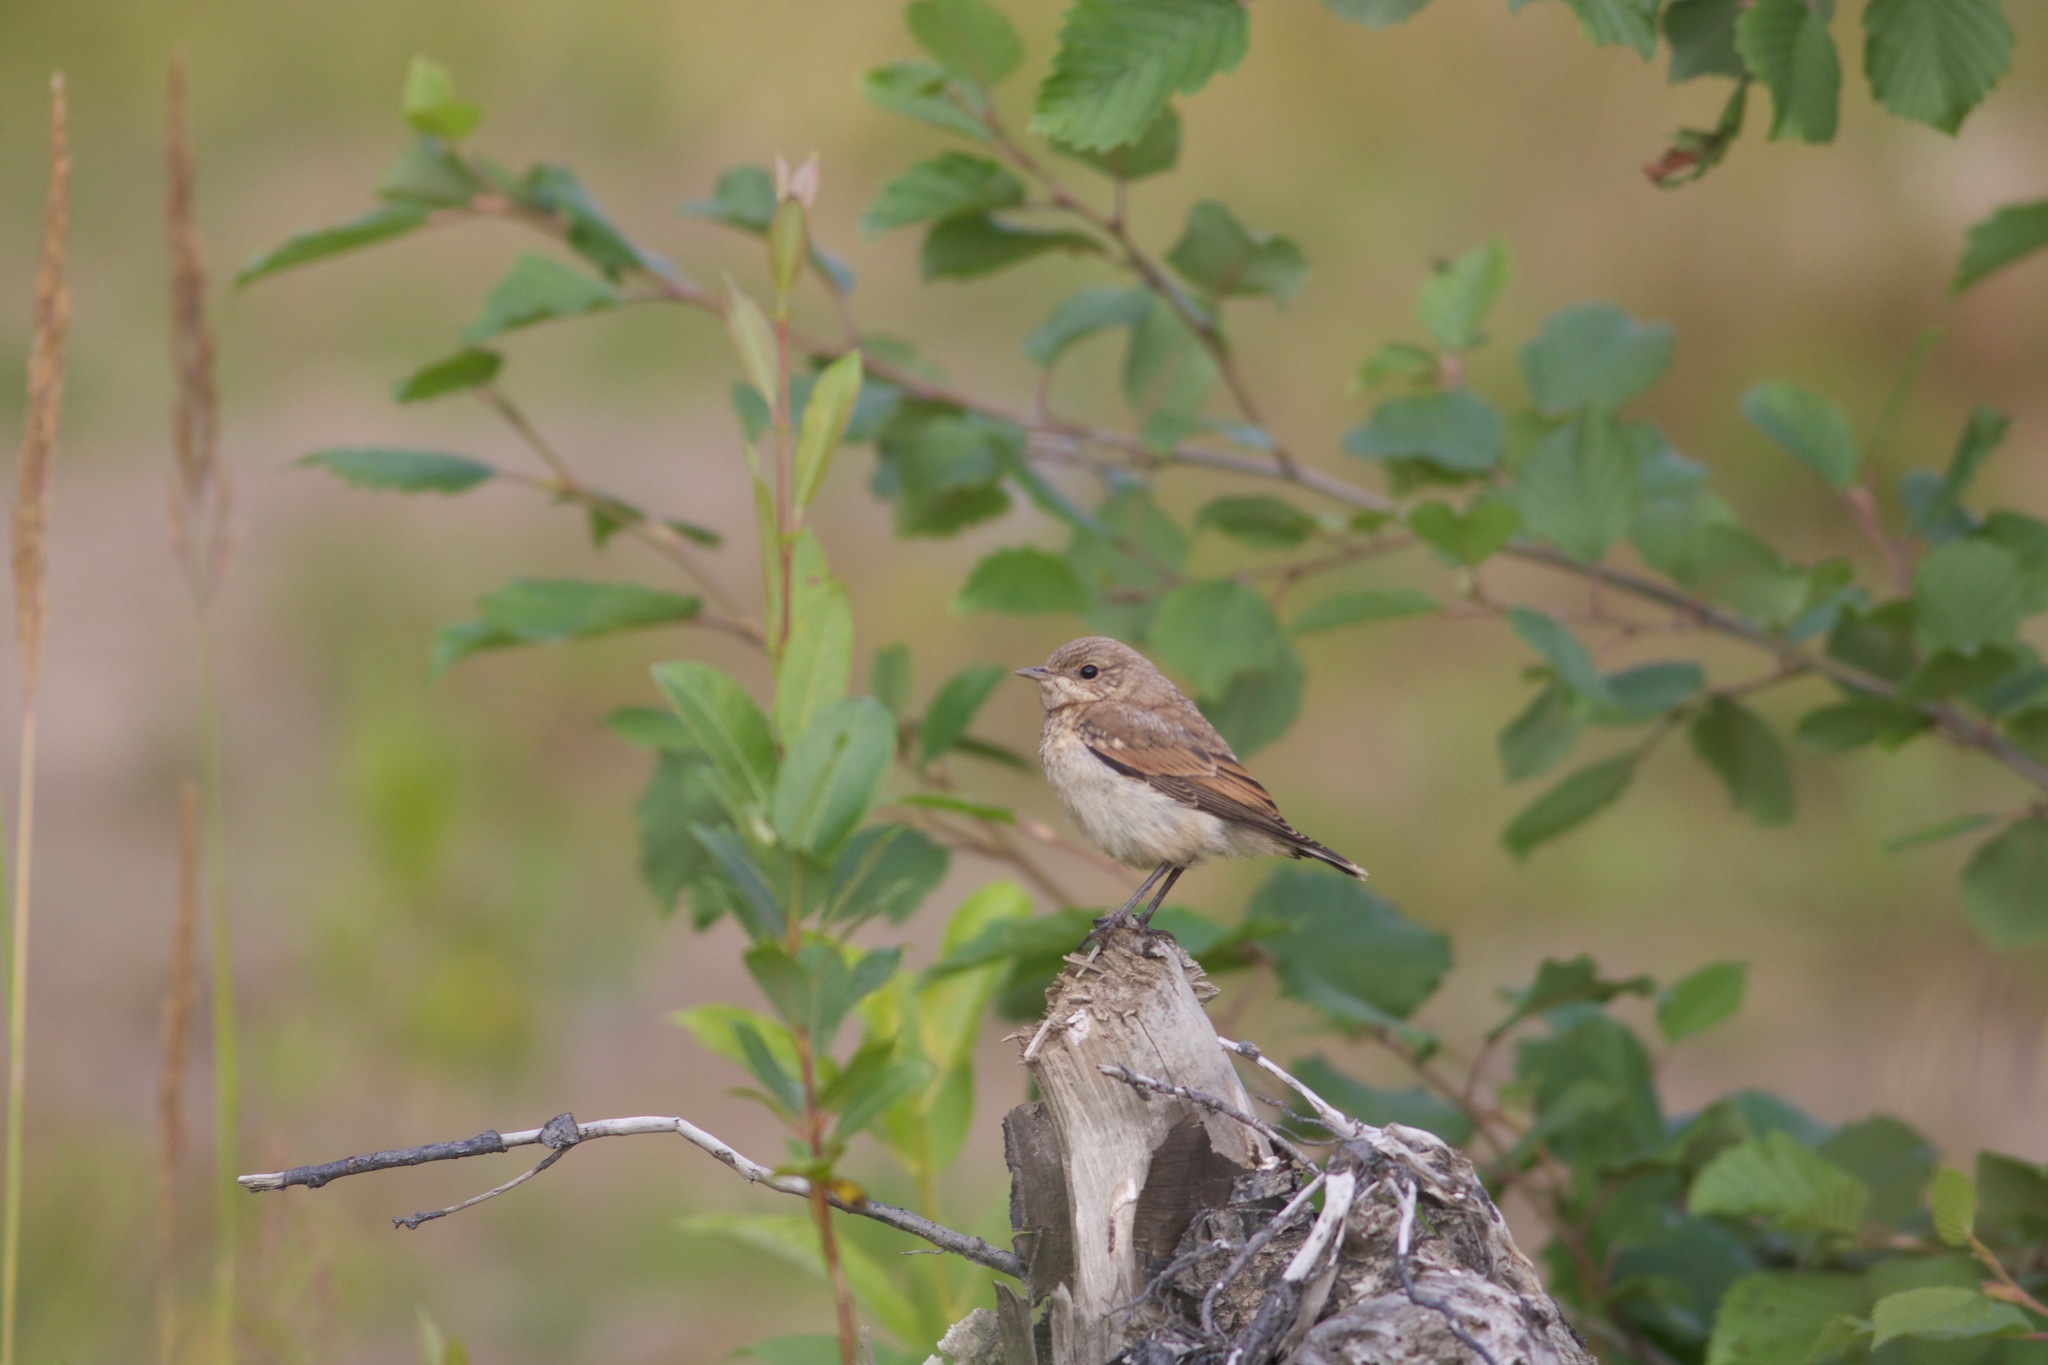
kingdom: Animalia
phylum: Chordata
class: Aves
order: Passeriformes
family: Muscicapidae
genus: Oenanthe
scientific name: Oenanthe oenanthe
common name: Northern wheatear
